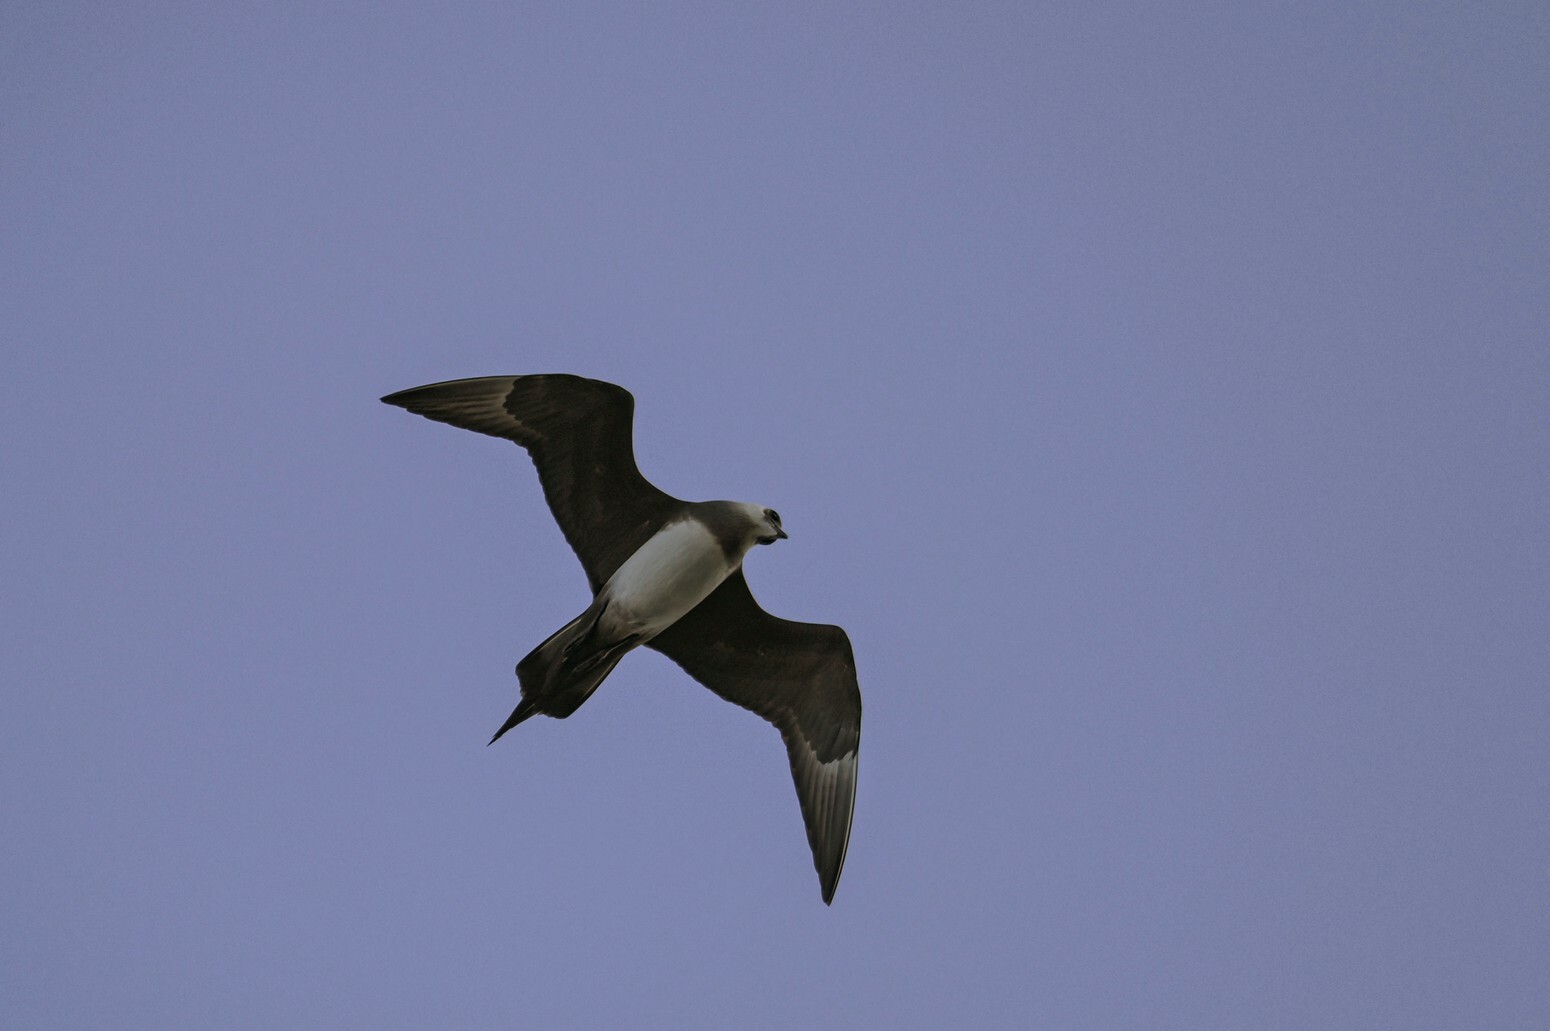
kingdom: Animalia
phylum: Chordata
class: Aves
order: Charadriiformes
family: Stercorariidae
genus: Stercorarius
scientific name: Stercorarius parasiticus
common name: Parasitic jaeger
